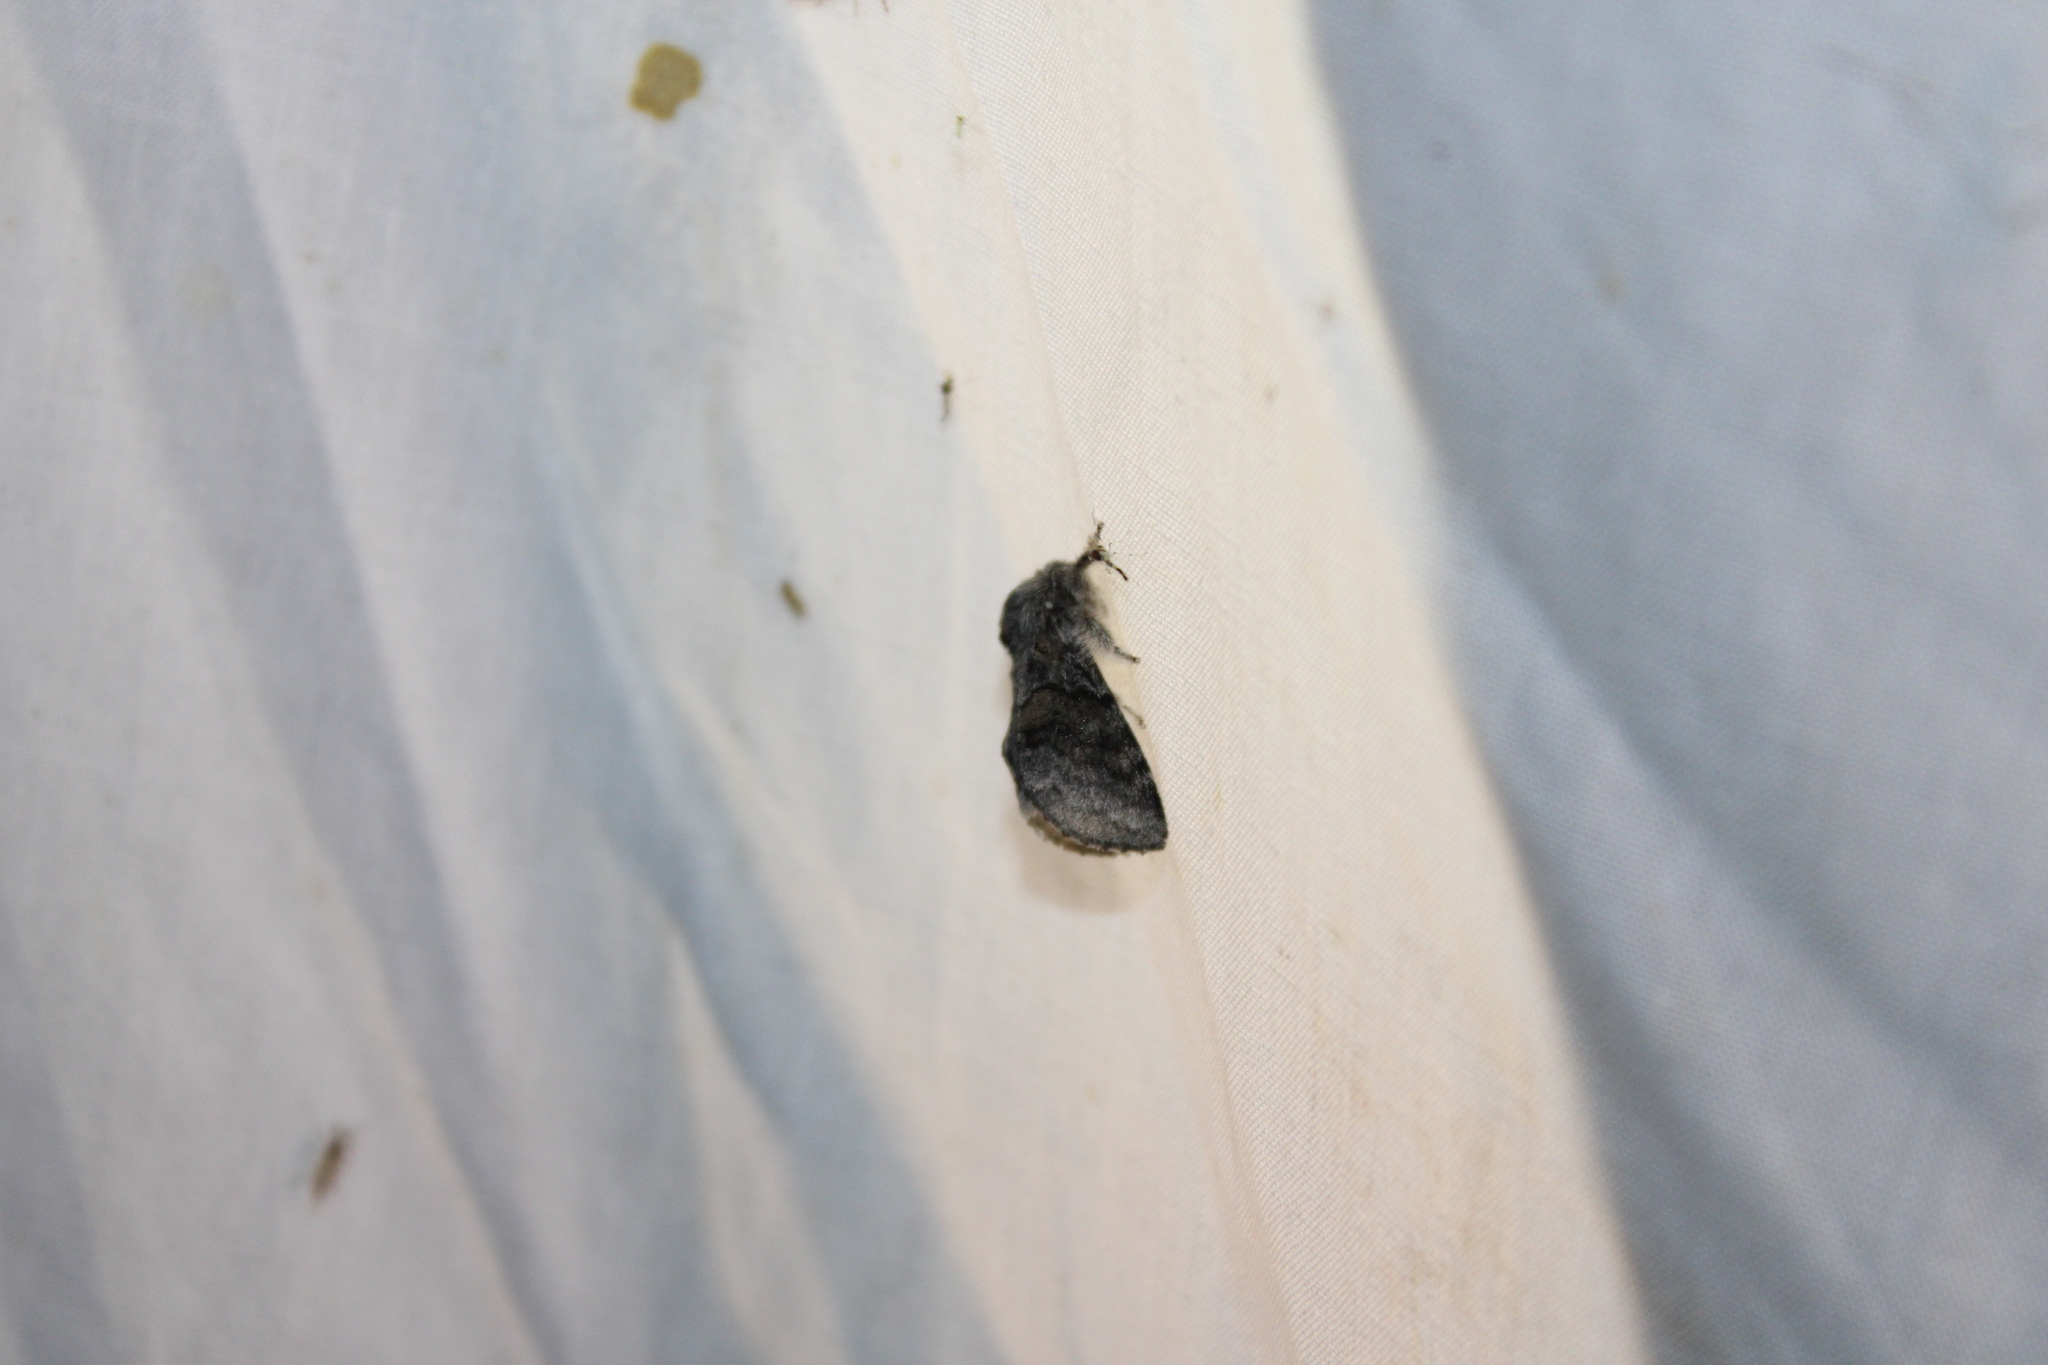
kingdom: Animalia
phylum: Arthropoda
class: Insecta
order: Lepidoptera
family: Notodontidae
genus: Gluphisia
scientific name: Gluphisia septentrionis
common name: Common gluphisia
